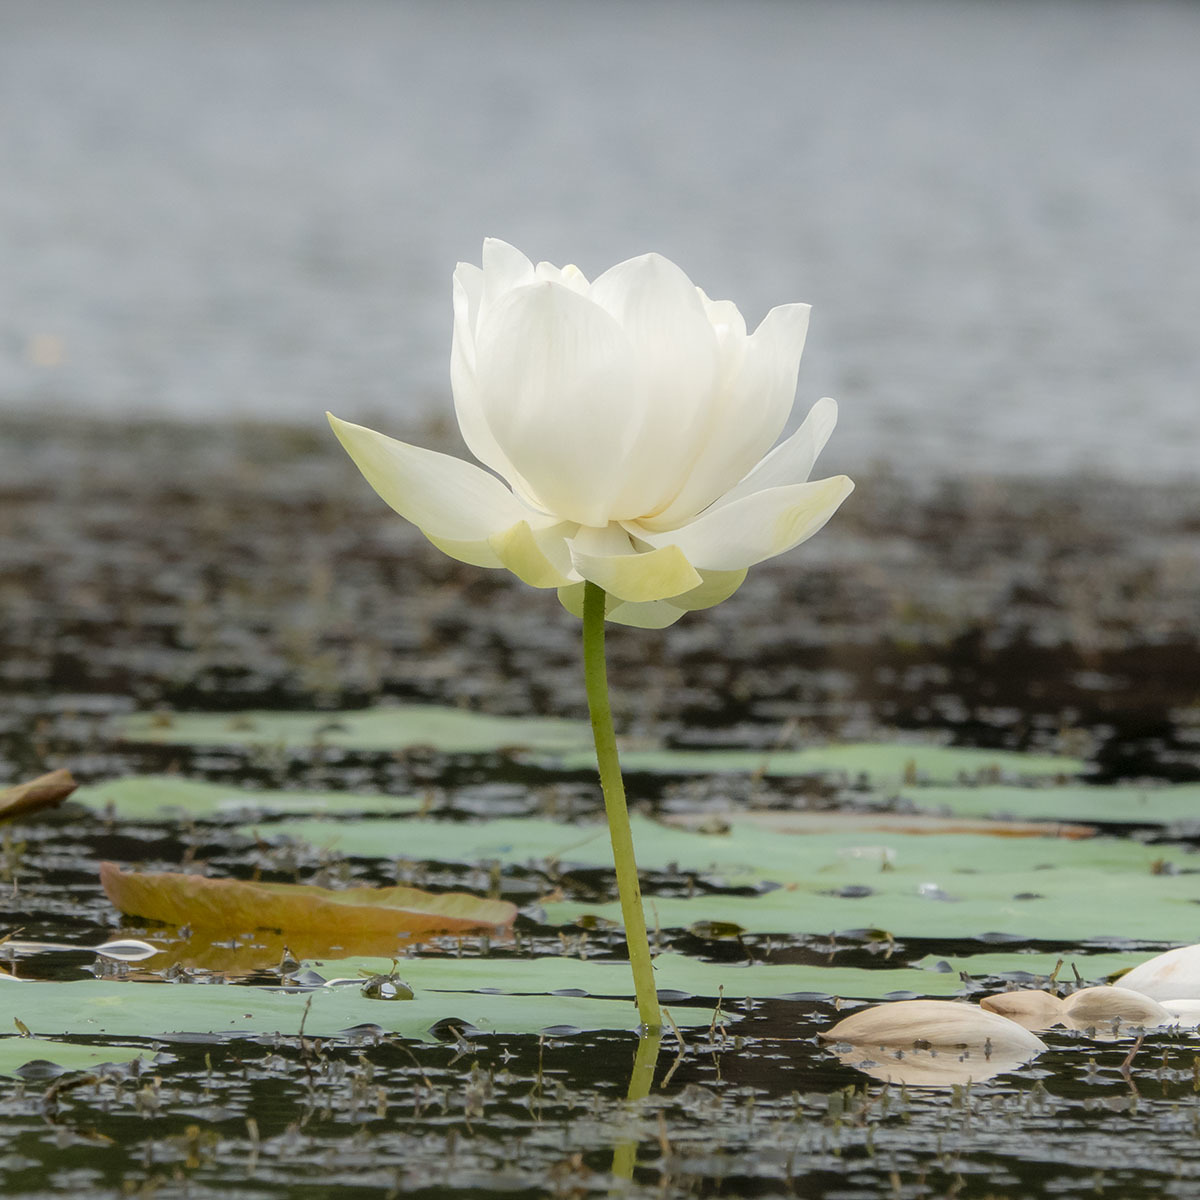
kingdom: Plantae
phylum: Tracheophyta
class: Magnoliopsida
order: Proteales
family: Nelumbonaceae
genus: Nelumbo
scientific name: Nelumbo nucifera
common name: Sacred lotus
